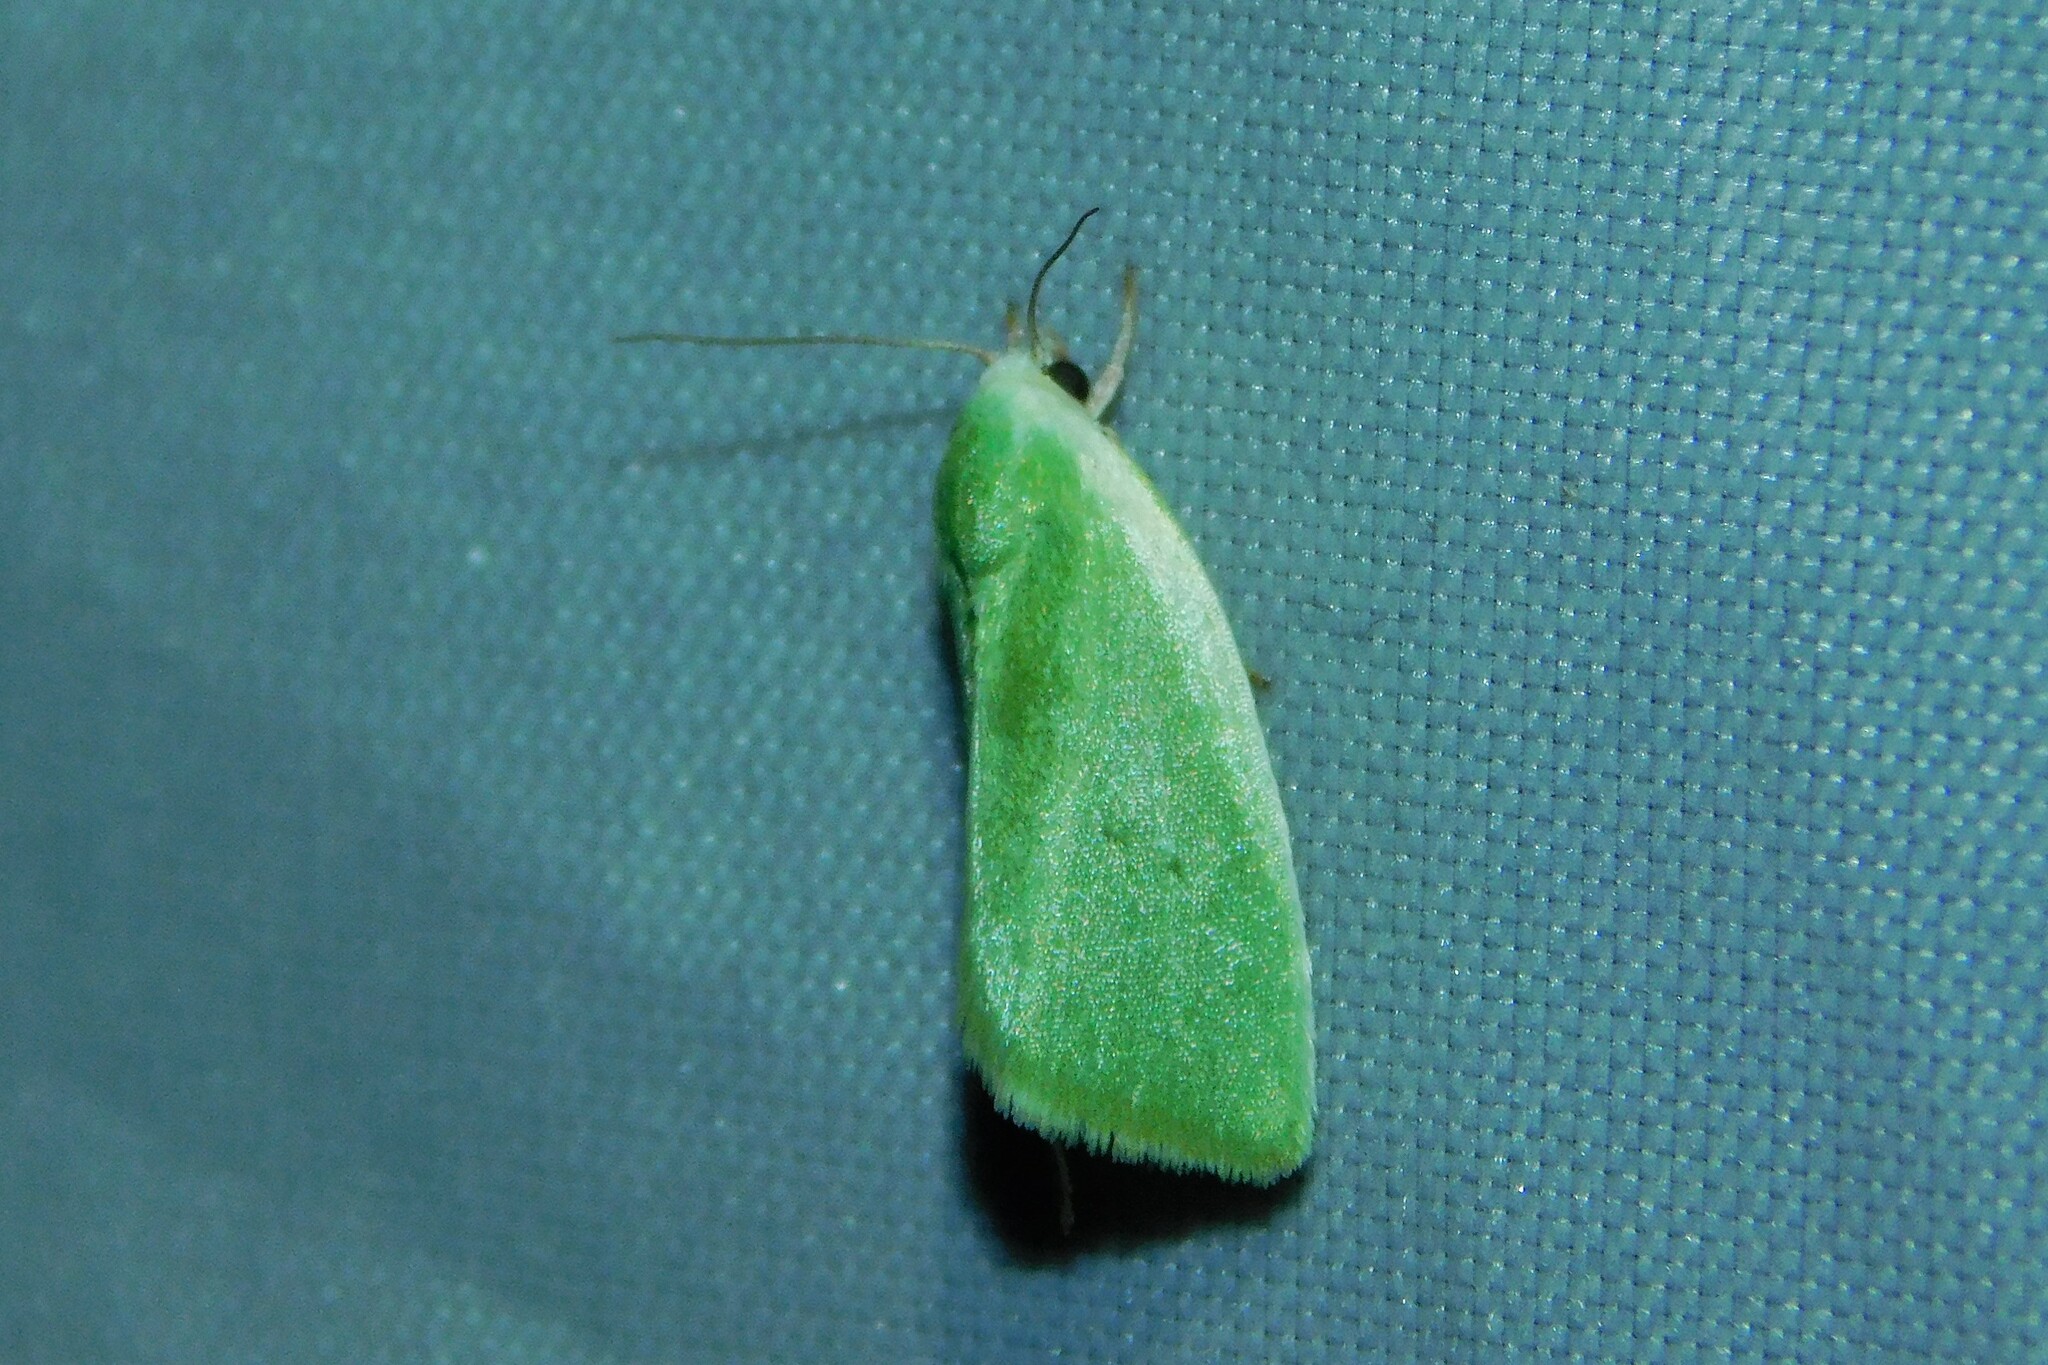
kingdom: Animalia
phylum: Arthropoda
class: Insecta
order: Lepidoptera
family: Nolidae
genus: Earias
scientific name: Earias clorana
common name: Cream-bordered green pea
